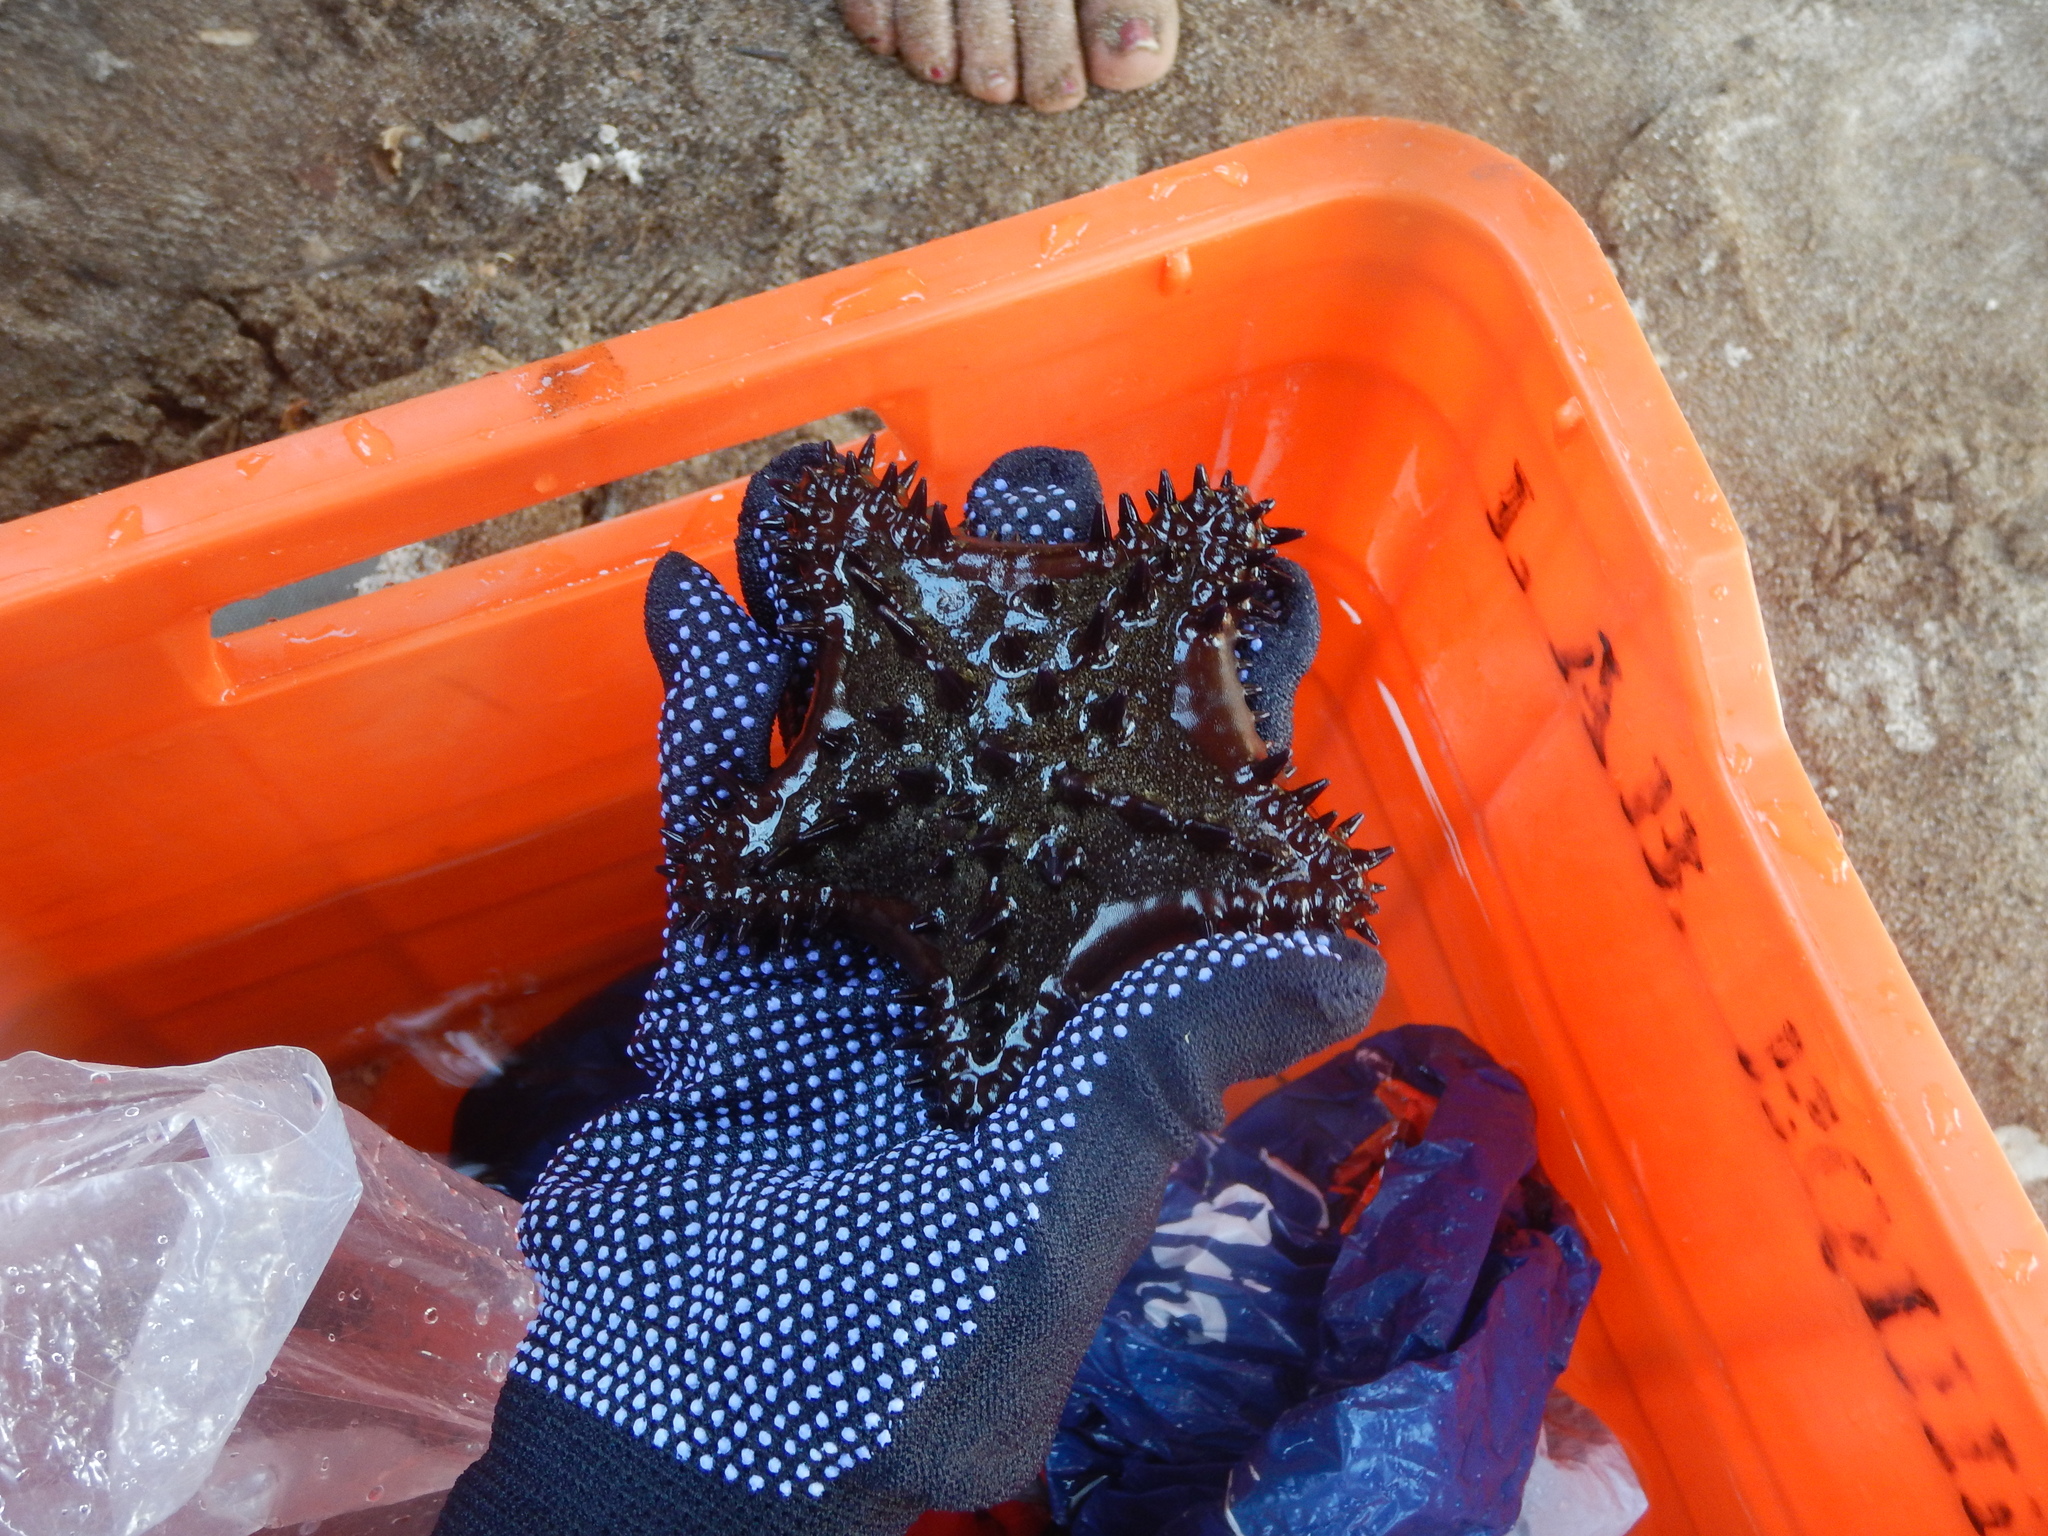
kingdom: Animalia
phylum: Echinodermata
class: Asteroidea
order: Valvatida
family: Oreasteridae
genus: Nidorellia
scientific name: Nidorellia armata
